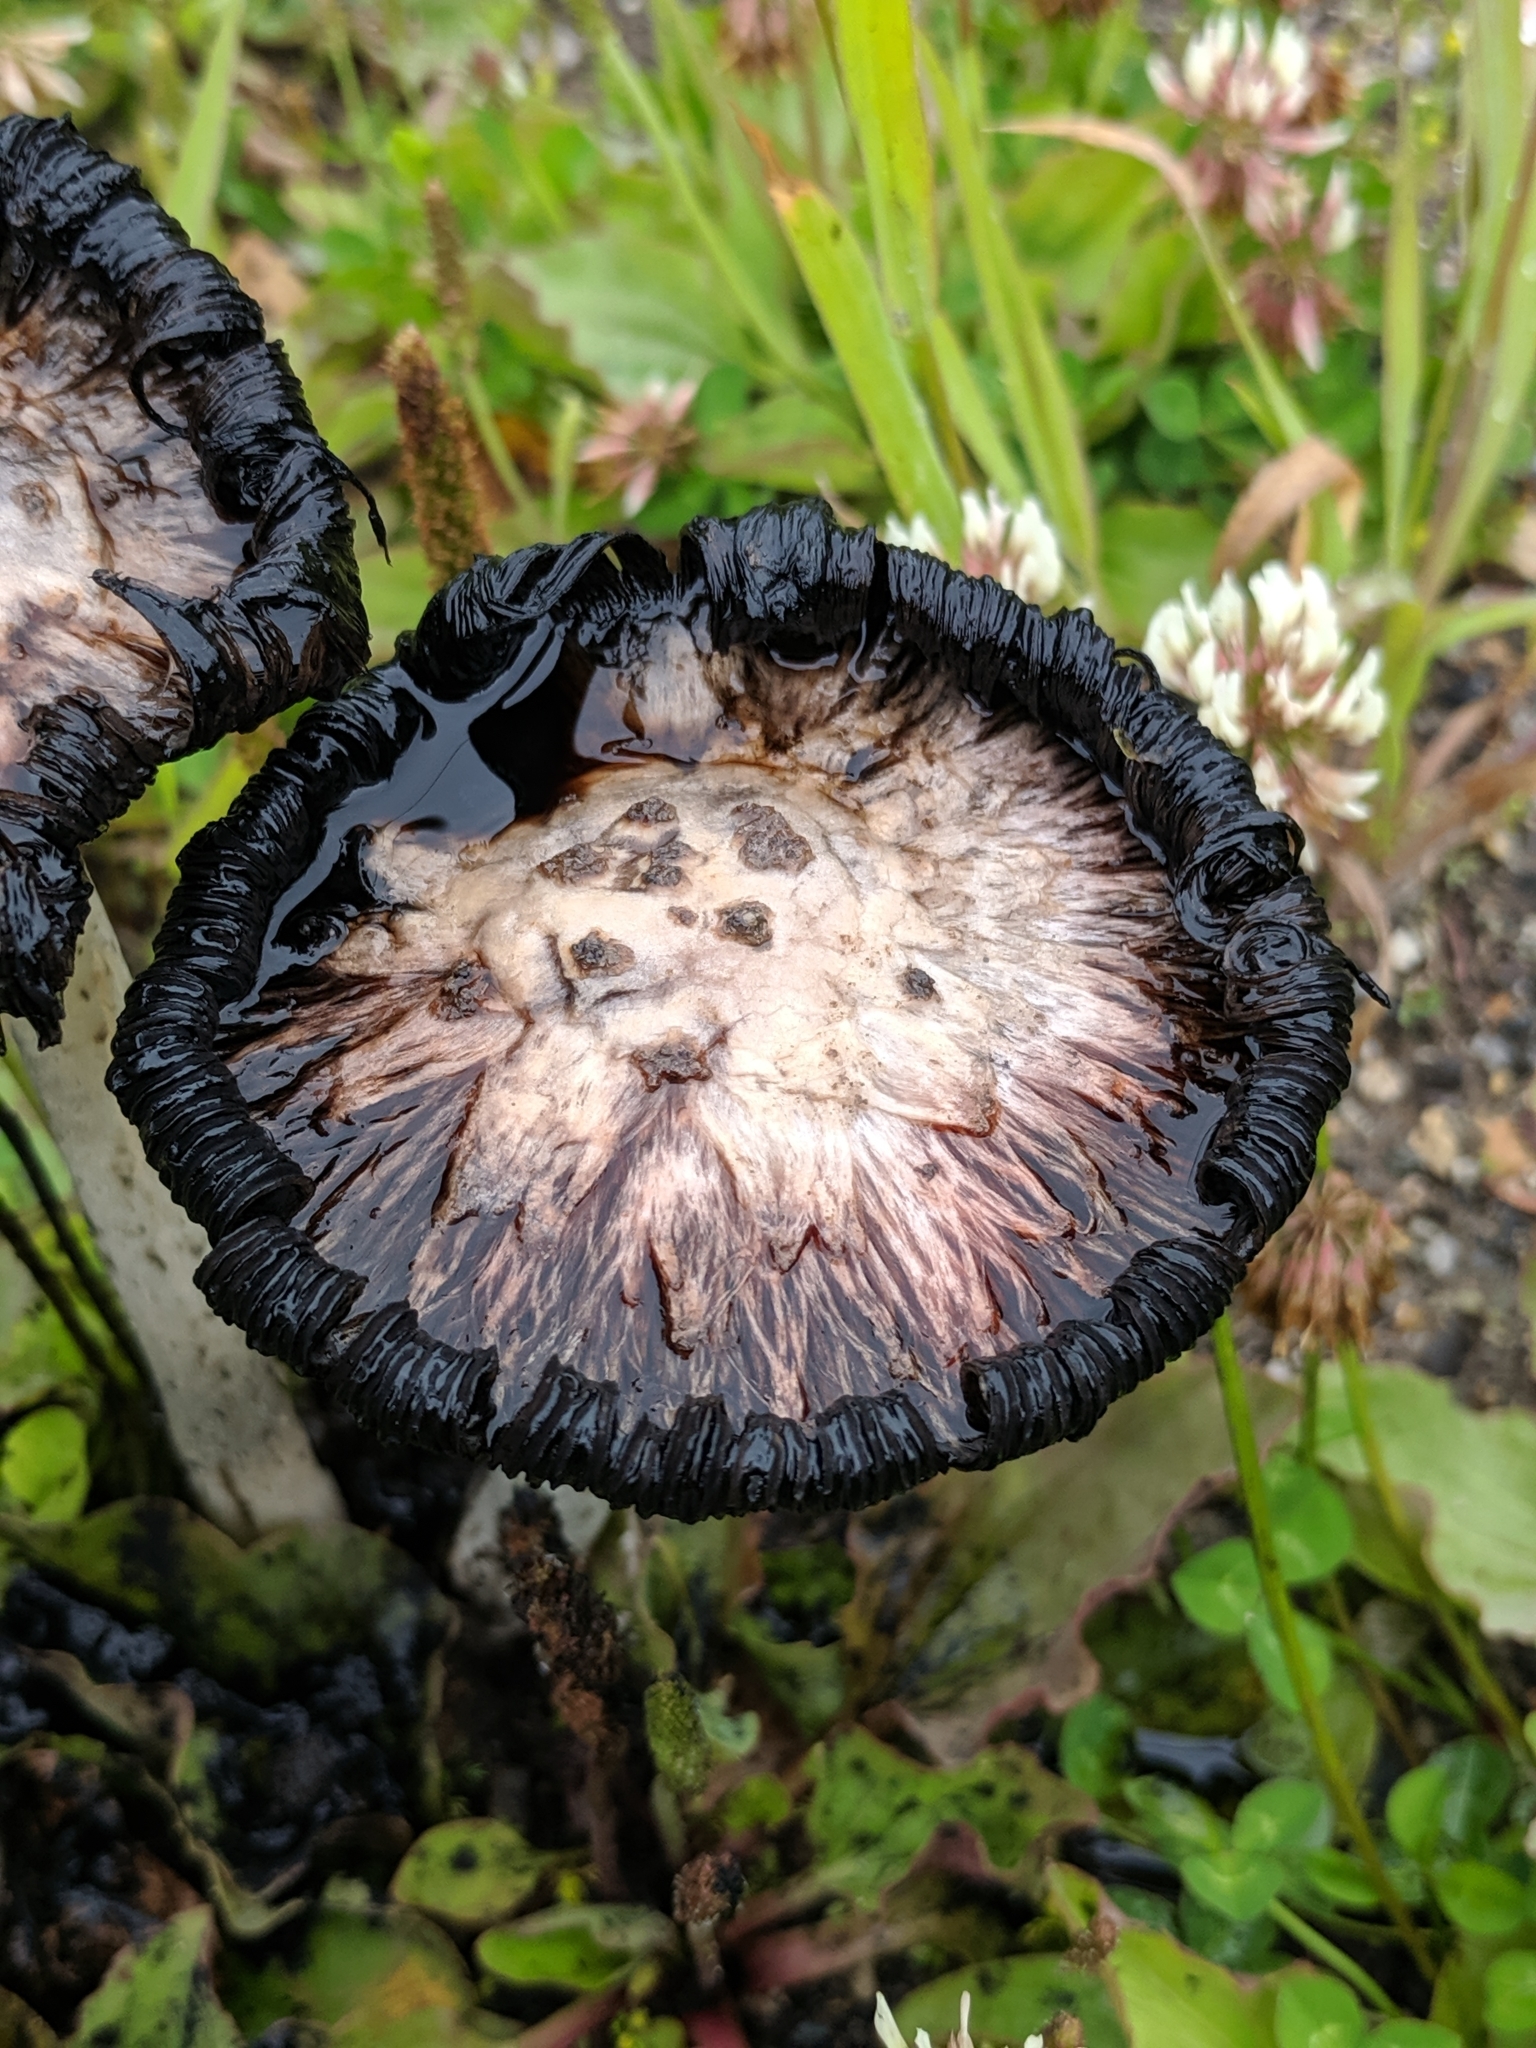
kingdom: Fungi
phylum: Basidiomycota
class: Agaricomycetes
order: Agaricales
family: Agaricaceae
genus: Coprinus
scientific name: Coprinus comatus
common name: Lawyer's wig
